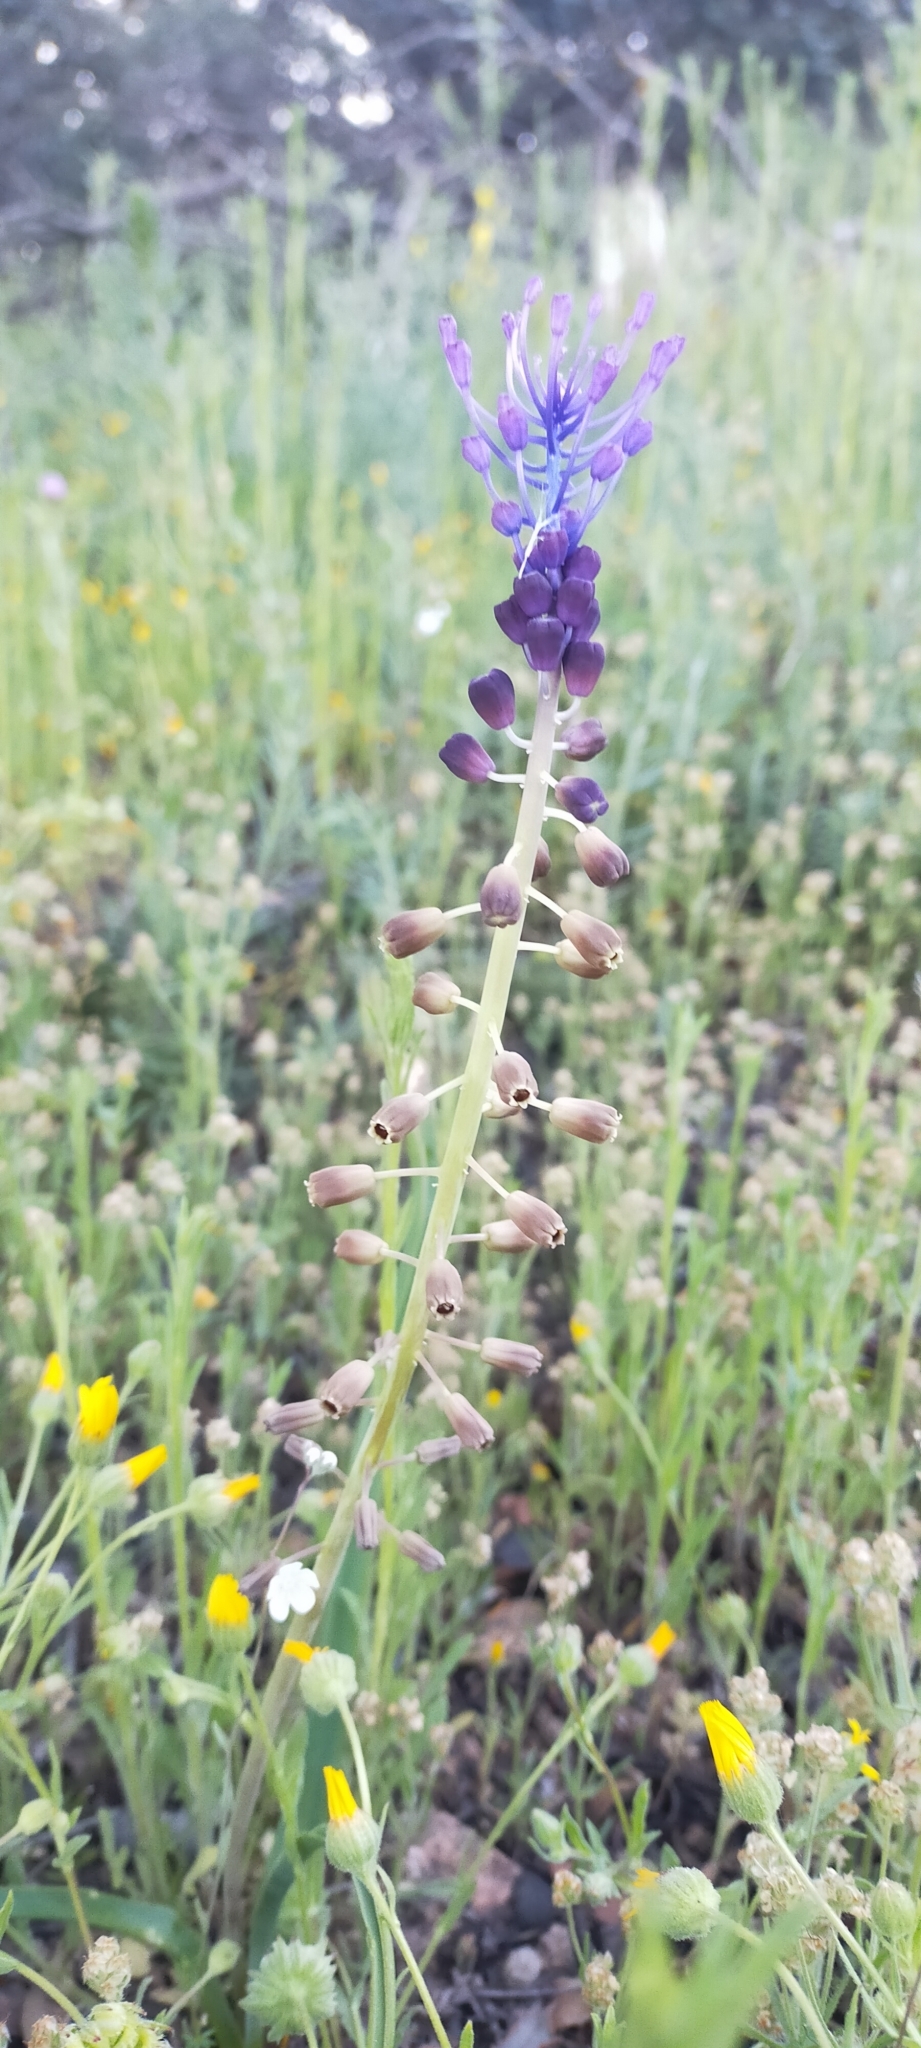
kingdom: Plantae
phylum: Tracheophyta
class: Liliopsida
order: Asparagales
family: Asparagaceae
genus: Muscari
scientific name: Muscari comosum
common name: Tassel hyacinth
